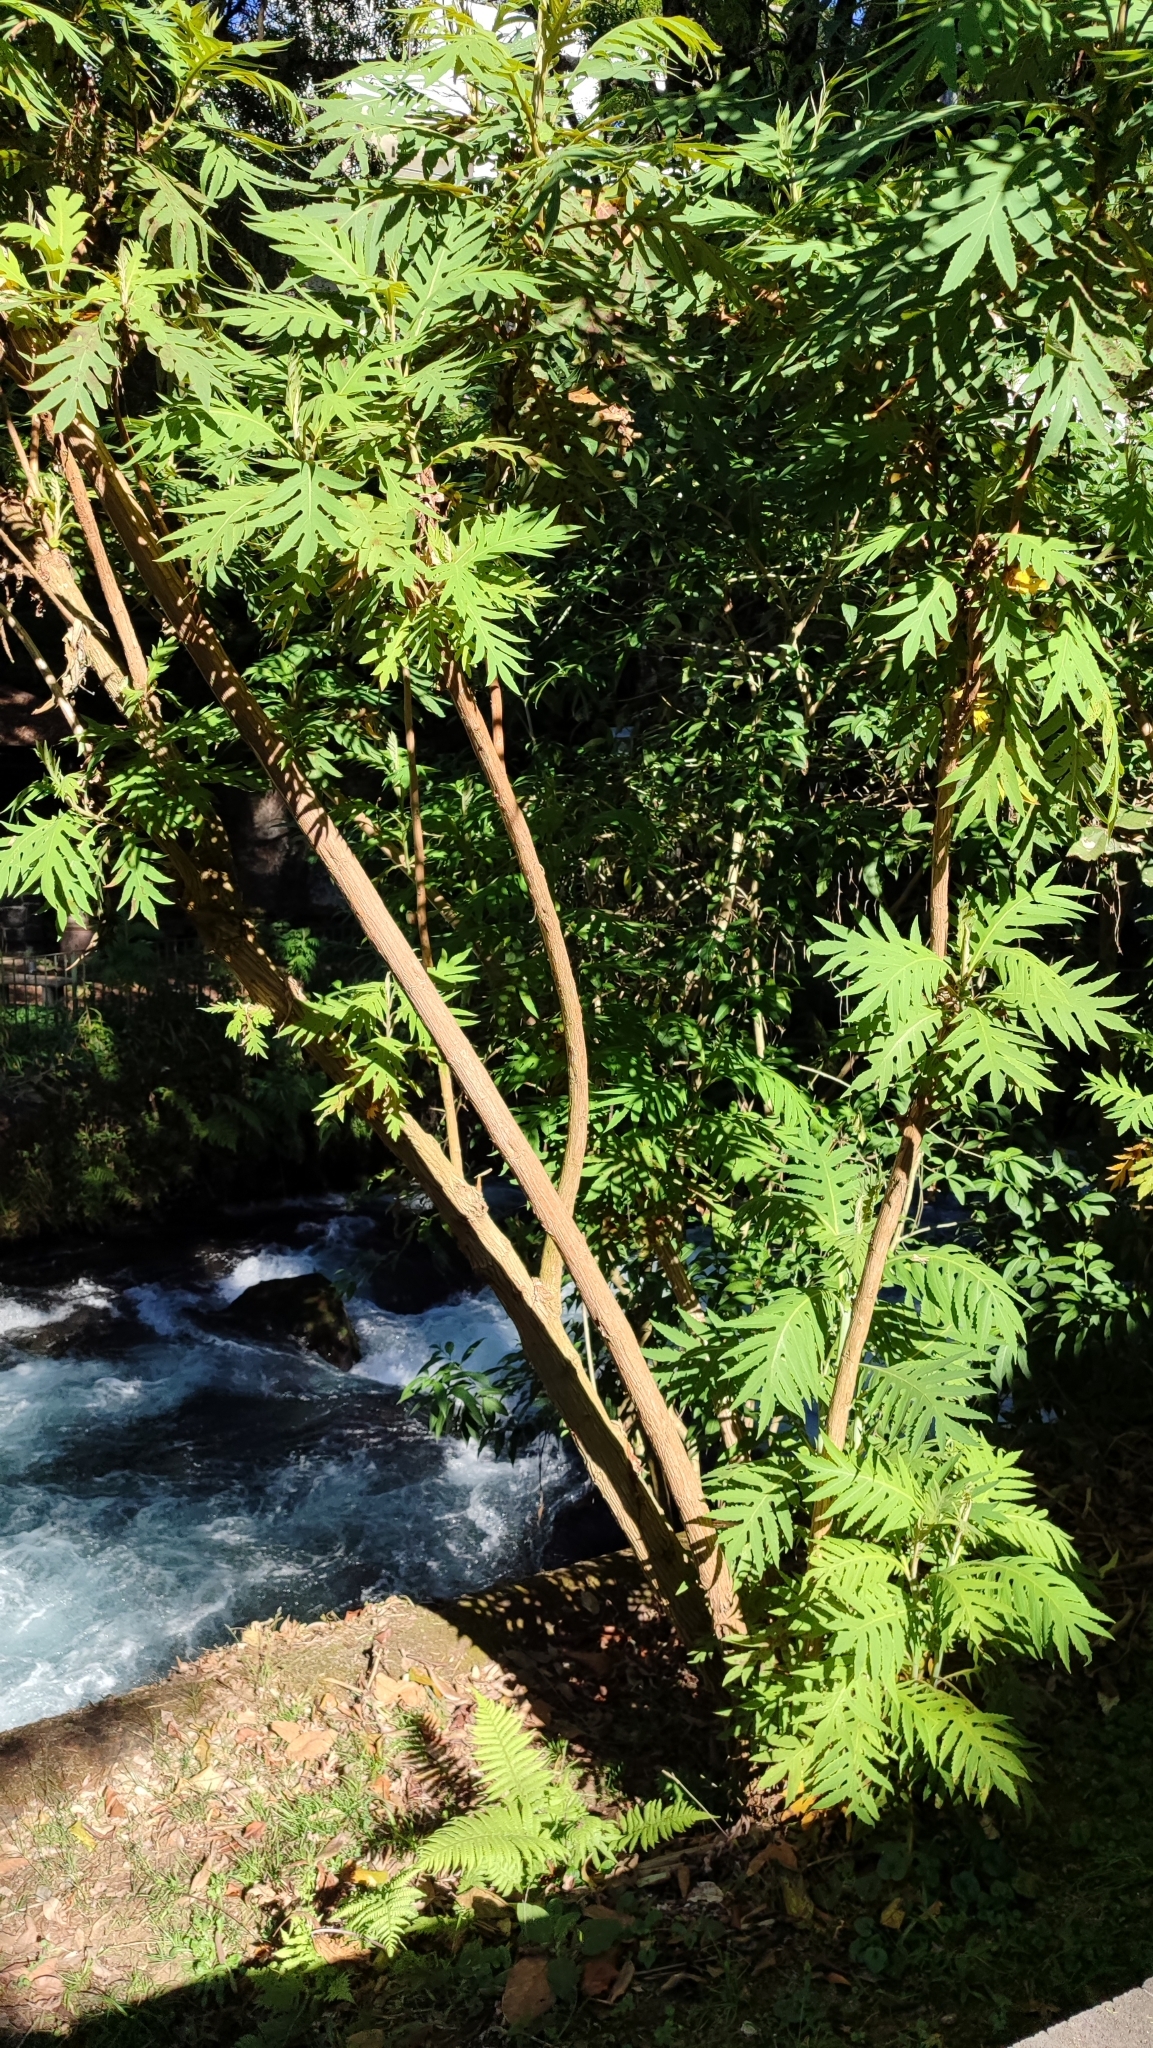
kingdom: Plantae
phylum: Tracheophyta
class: Magnoliopsida
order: Ranunculales
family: Papaveraceae
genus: Bocconia
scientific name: Bocconia arborea
